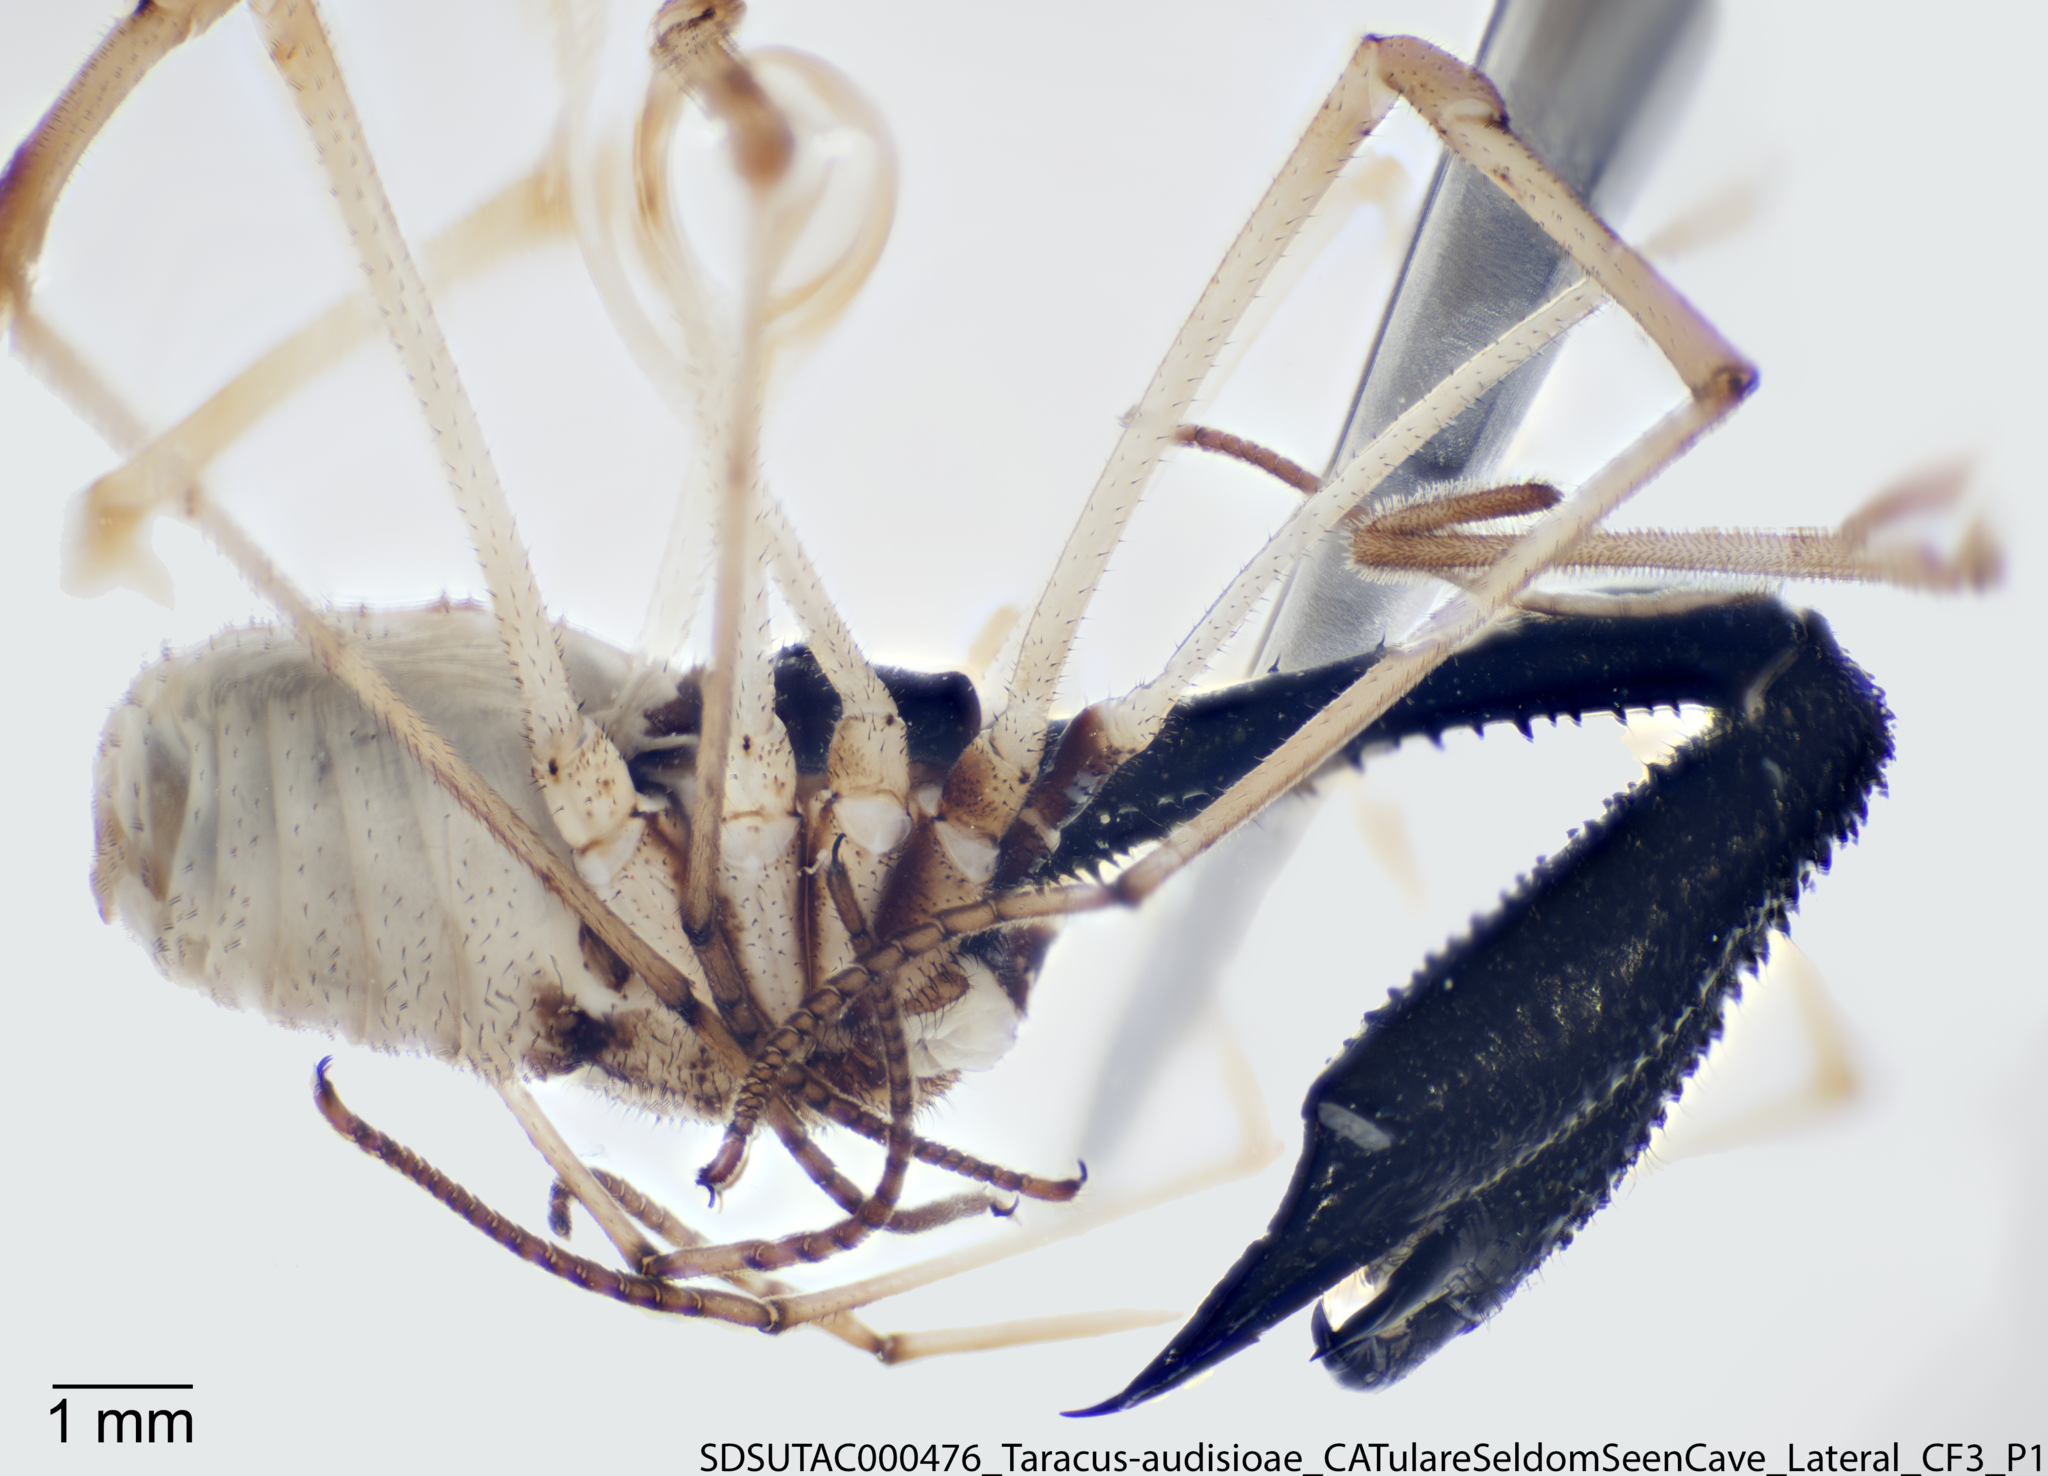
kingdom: Animalia
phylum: Arthropoda
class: Arachnida
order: Opiliones
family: Taracidae
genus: Taracus
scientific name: Taracus audisioae
